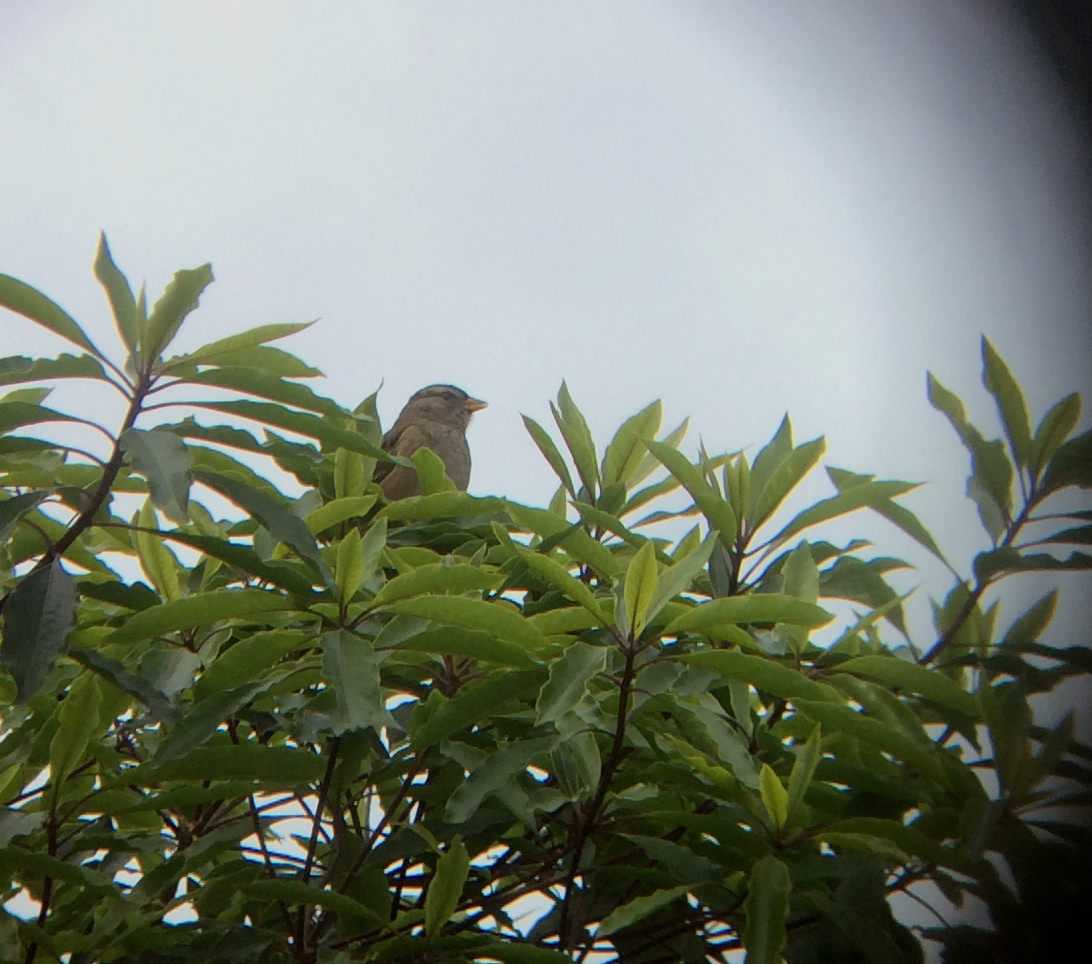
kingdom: Animalia
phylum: Chordata
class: Aves
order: Passeriformes
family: Passerellidae
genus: Zonotrichia
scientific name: Zonotrichia leucophrys
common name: White-crowned sparrow
